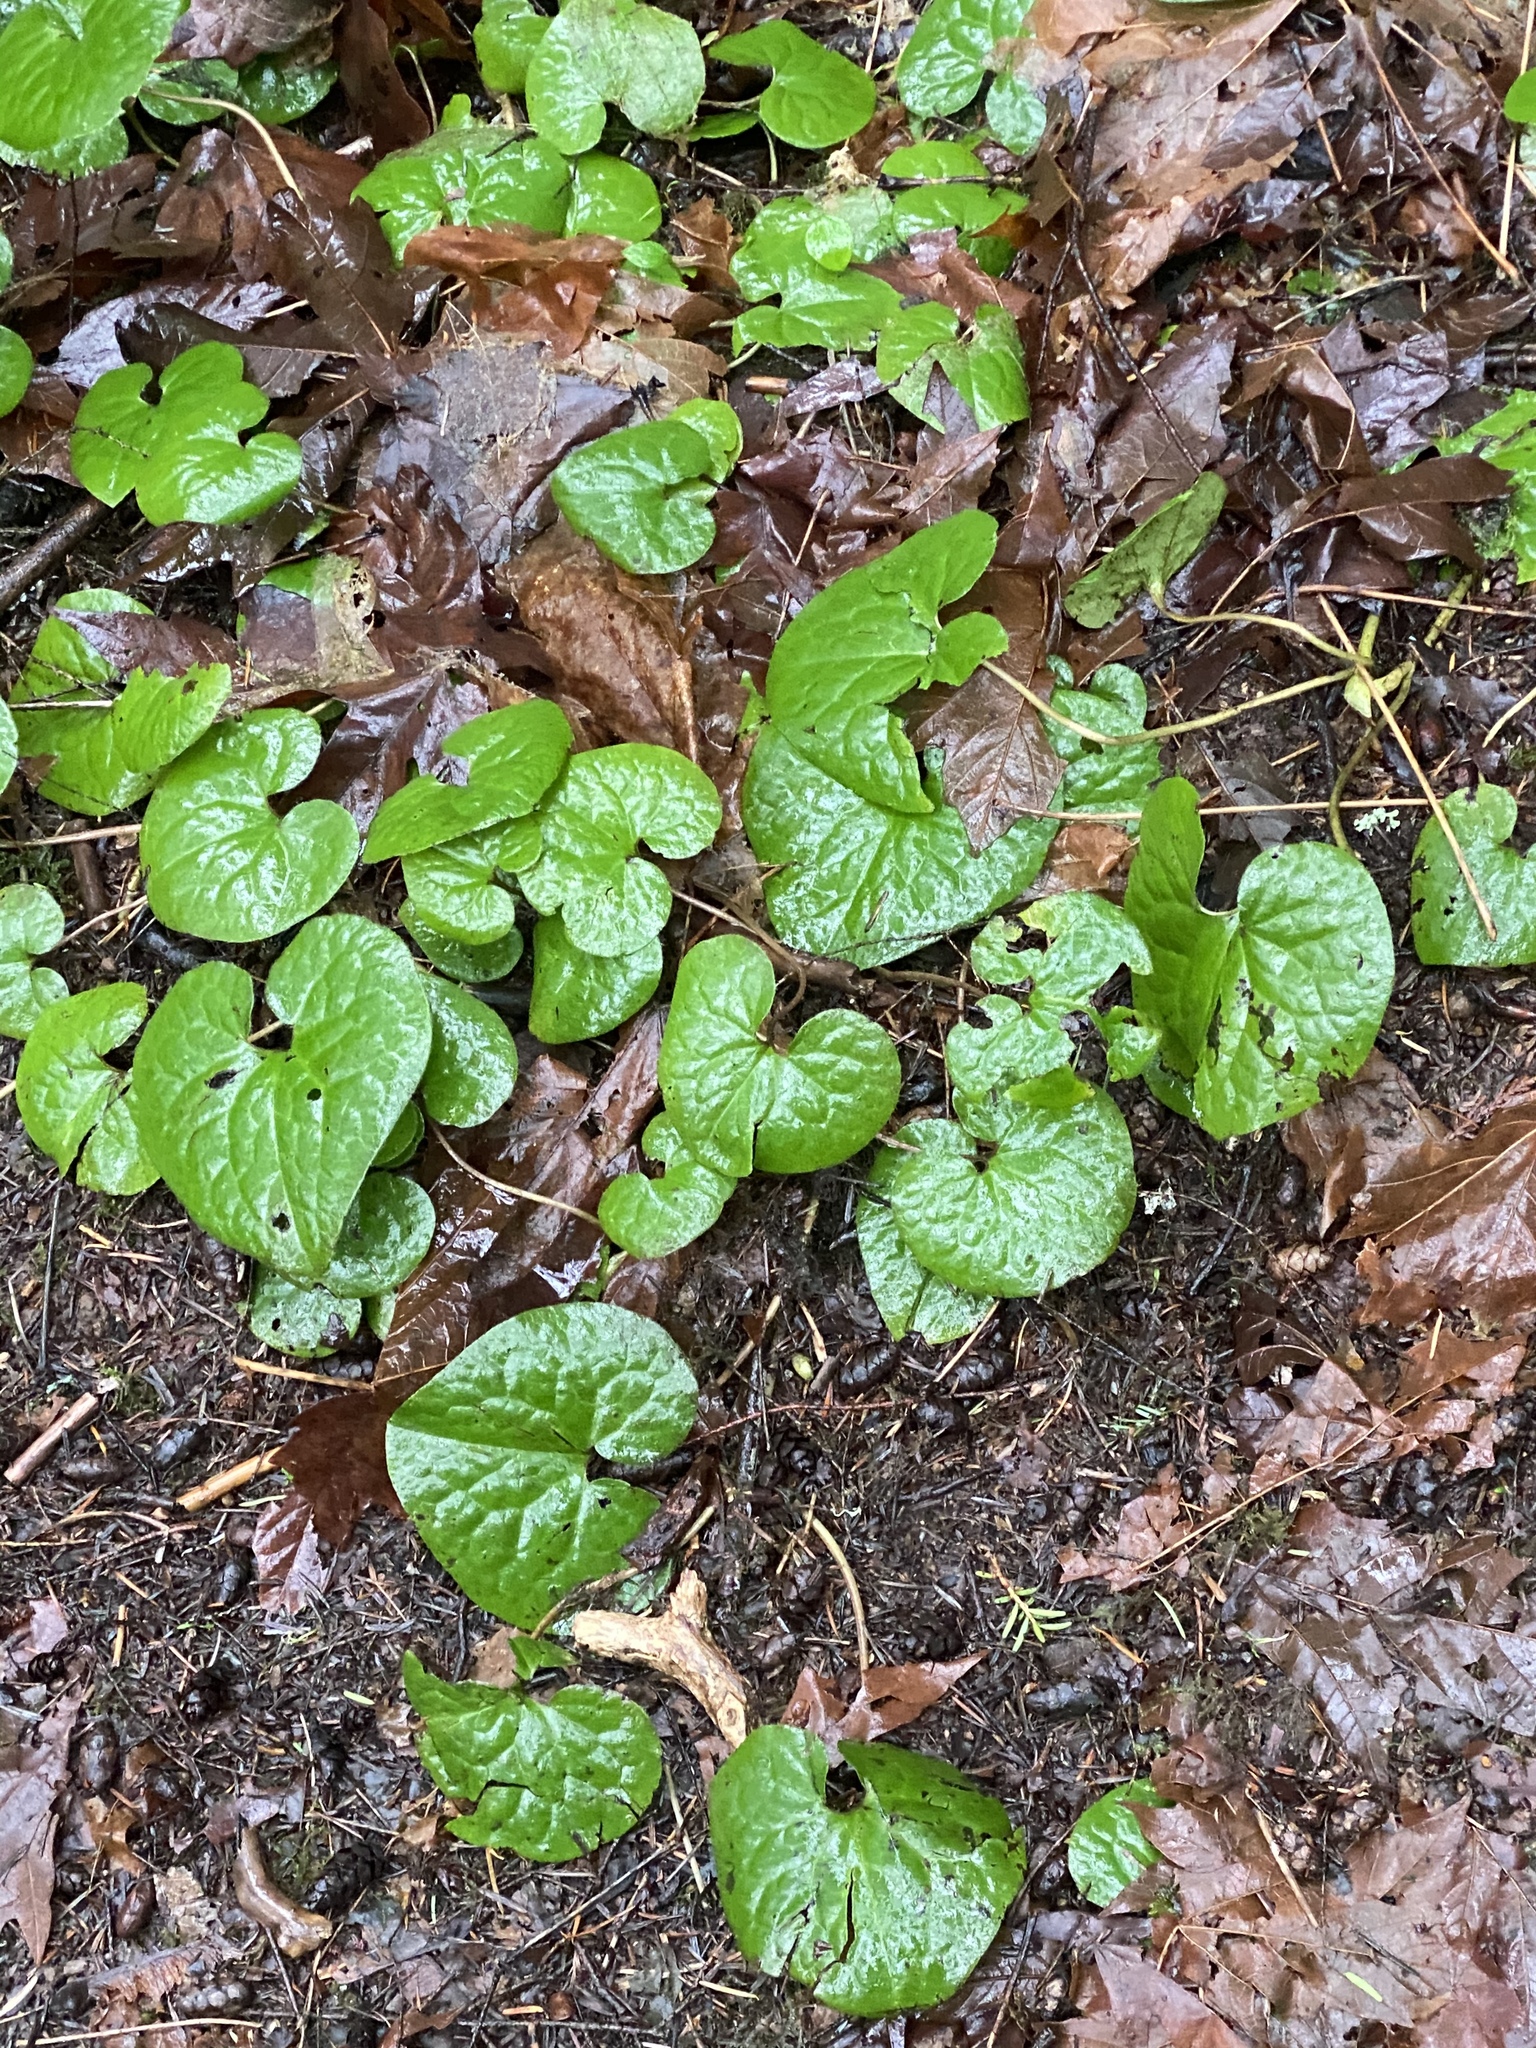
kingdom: Plantae
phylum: Tracheophyta
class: Magnoliopsida
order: Piperales
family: Aristolochiaceae
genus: Asarum
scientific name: Asarum caudatum
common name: Wild ginger
